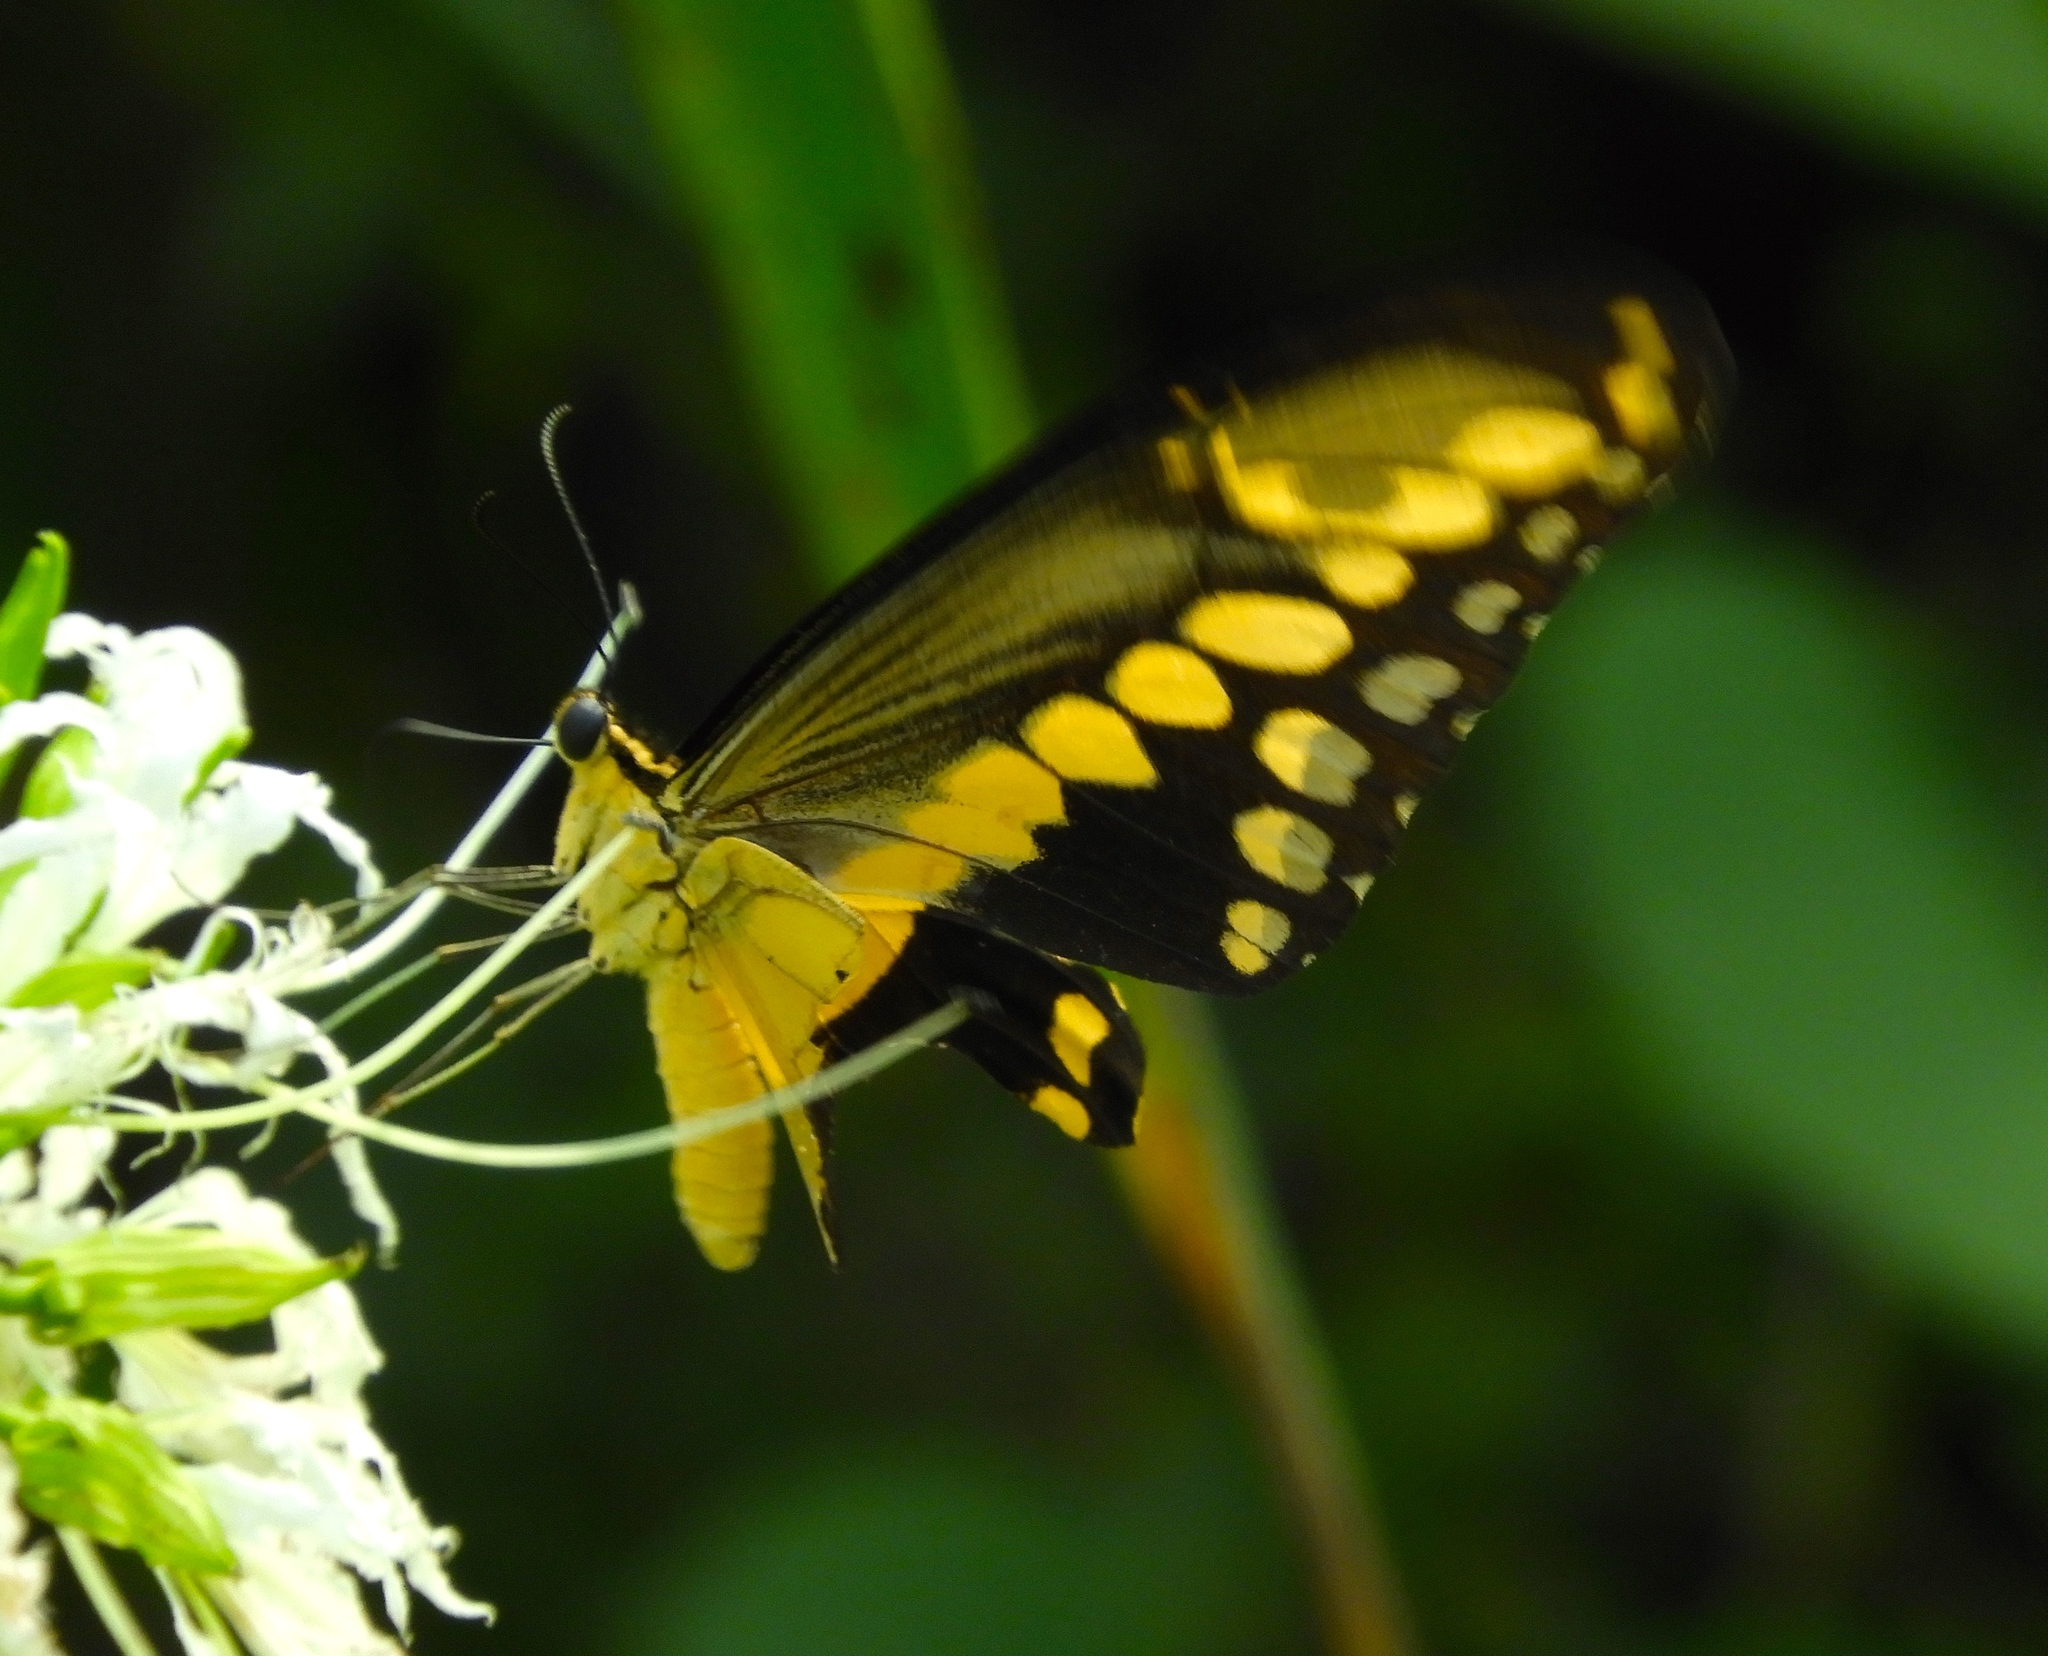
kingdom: Animalia
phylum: Arthropoda
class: Insecta
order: Lepidoptera
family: Papilionidae
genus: Papilio
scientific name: Papilio rumiko
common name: Western giant swallowtail
